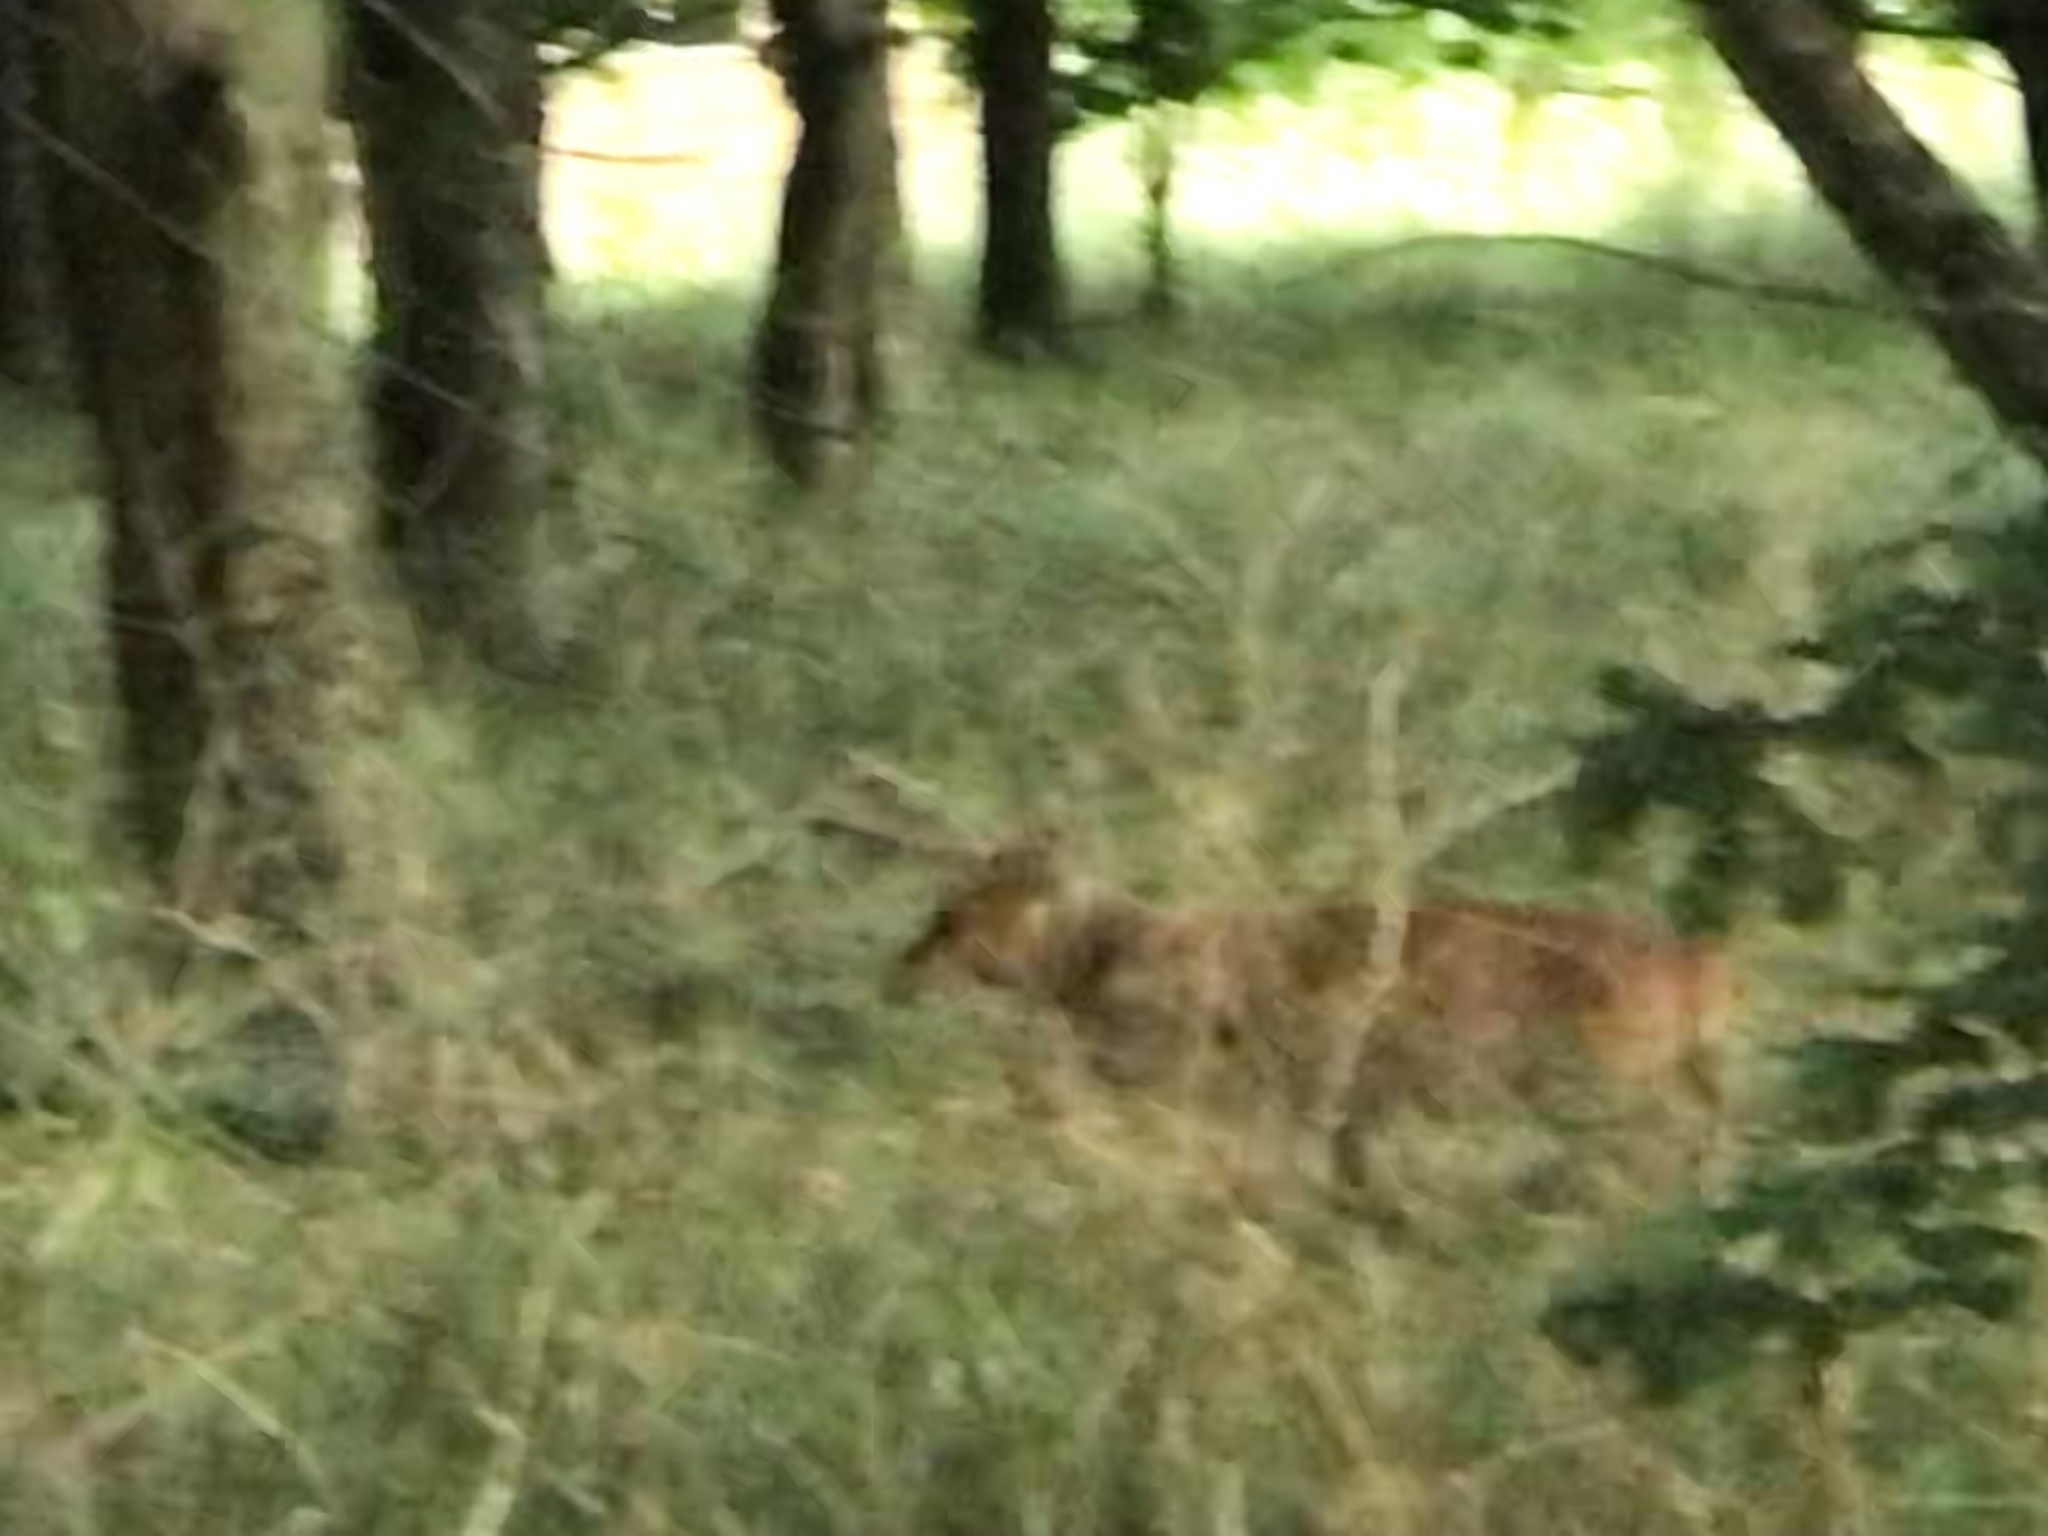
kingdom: Animalia
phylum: Chordata
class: Mammalia
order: Artiodactyla
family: Cervidae
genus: Muntiacus
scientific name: Muntiacus reevesi
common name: Reeves' muntjac
